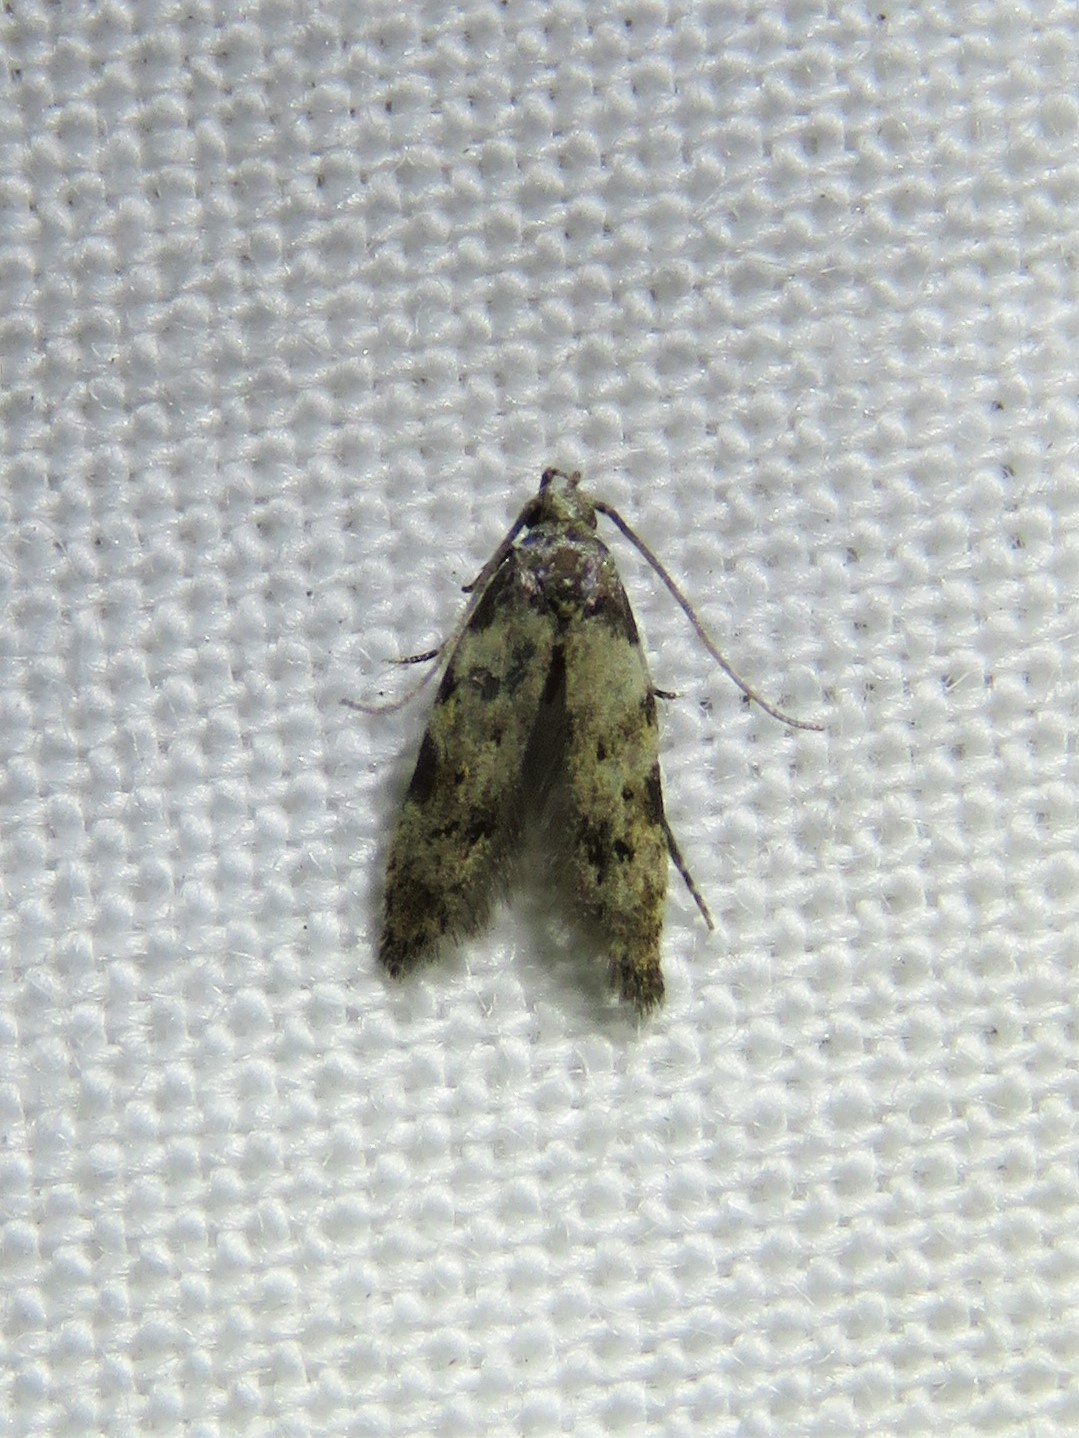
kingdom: Animalia
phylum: Arthropoda
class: Insecta
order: Lepidoptera
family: Autostichidae
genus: Taygete
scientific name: Taygete attributella
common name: Triangle-marked twirler moth
